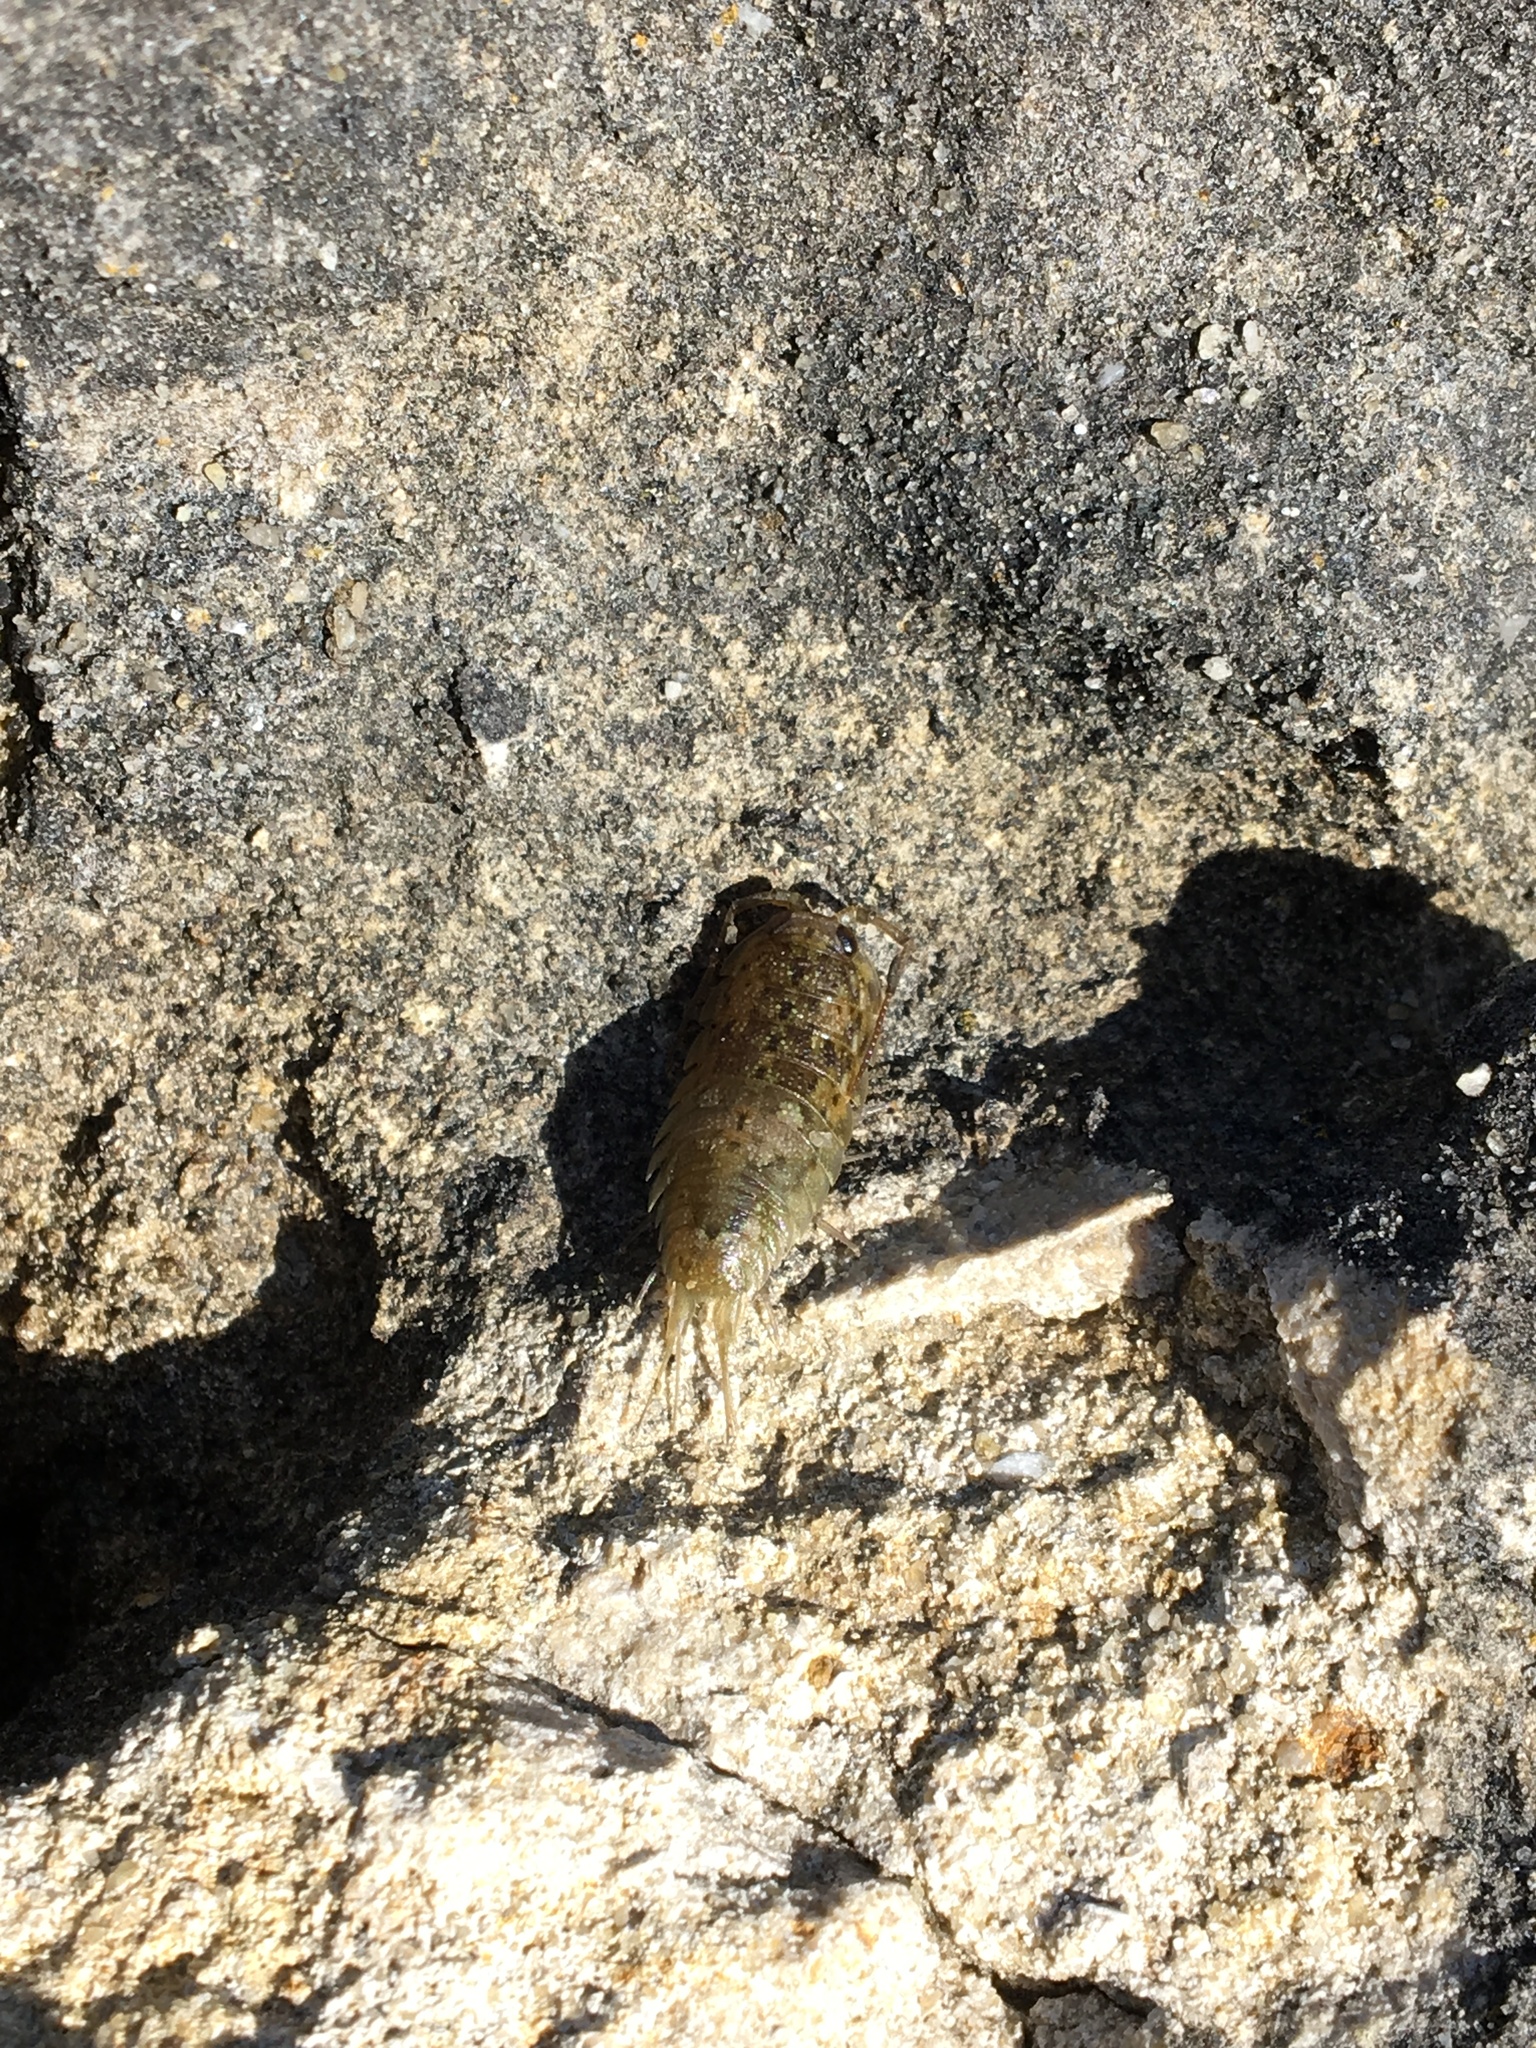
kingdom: Animalia
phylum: Arthropoda
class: Malacostraca
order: Isopoda
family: Ligiidae
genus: Ligia
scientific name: Ligia oceanica
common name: Sea slater
